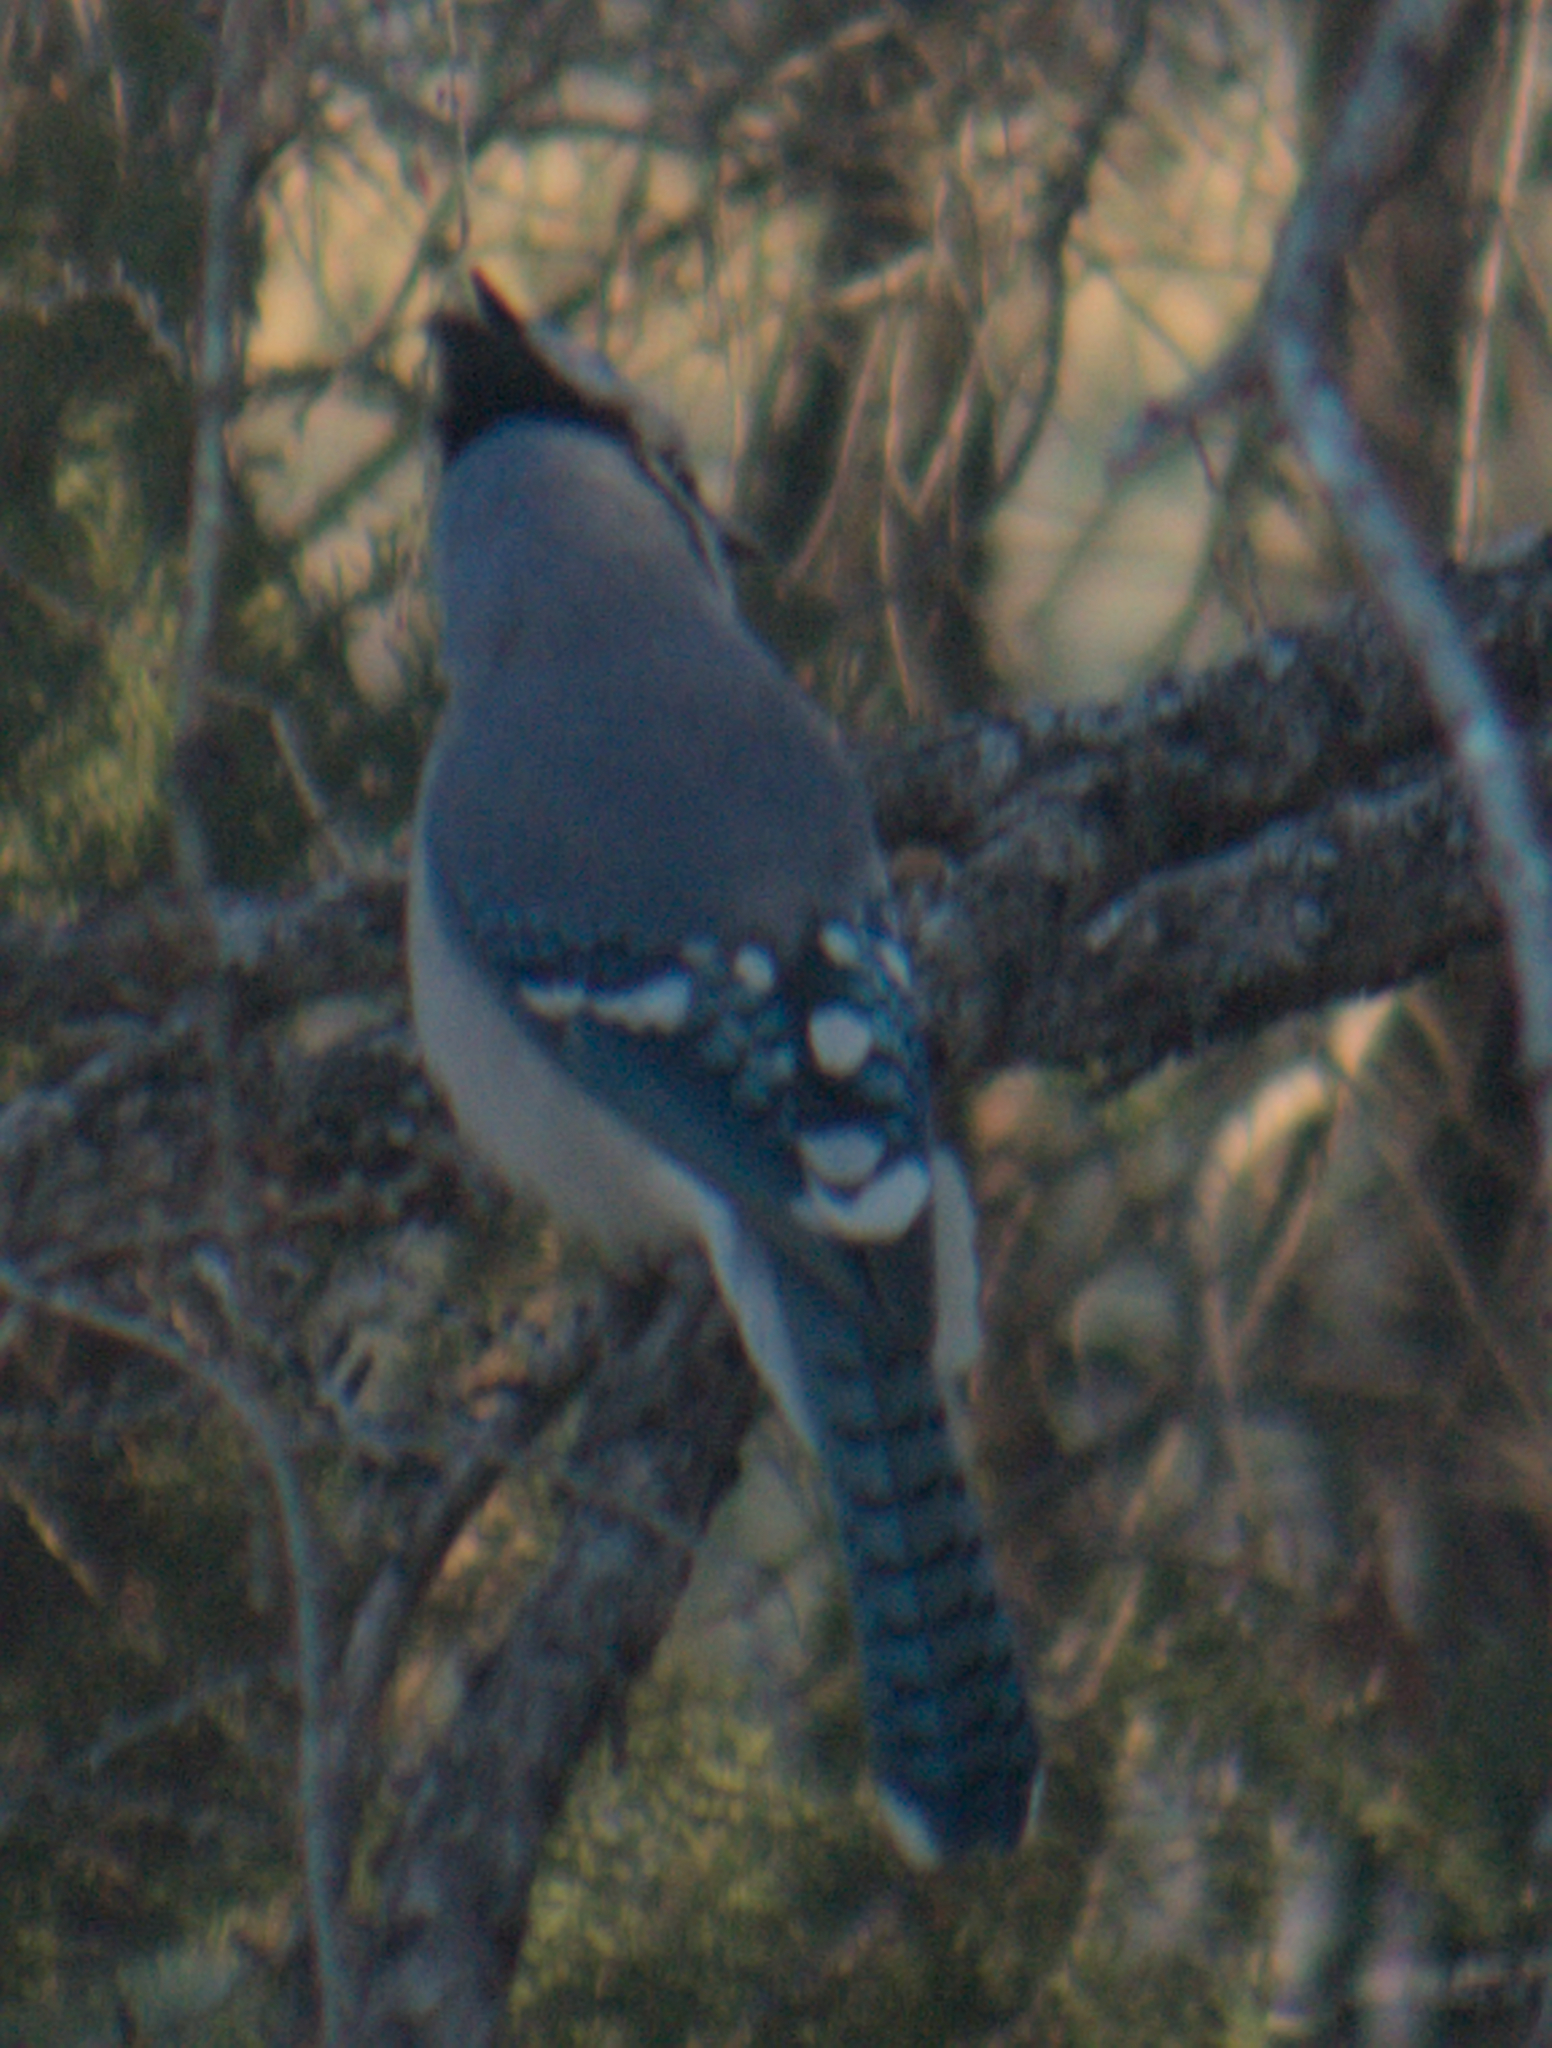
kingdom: Animalia
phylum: Chordata
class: Aves
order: Passeriformes
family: Corvidae
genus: Cyanocitta
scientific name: Cyanocitta cristata
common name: Blue jay
